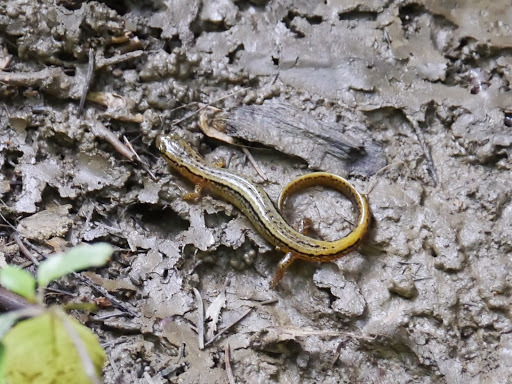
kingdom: Animalia
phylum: Chordata
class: Amphibia
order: Caudata
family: Plethodontidae
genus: Eurycea
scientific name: Eurycea bislineata
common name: Northern two-lined salamander
